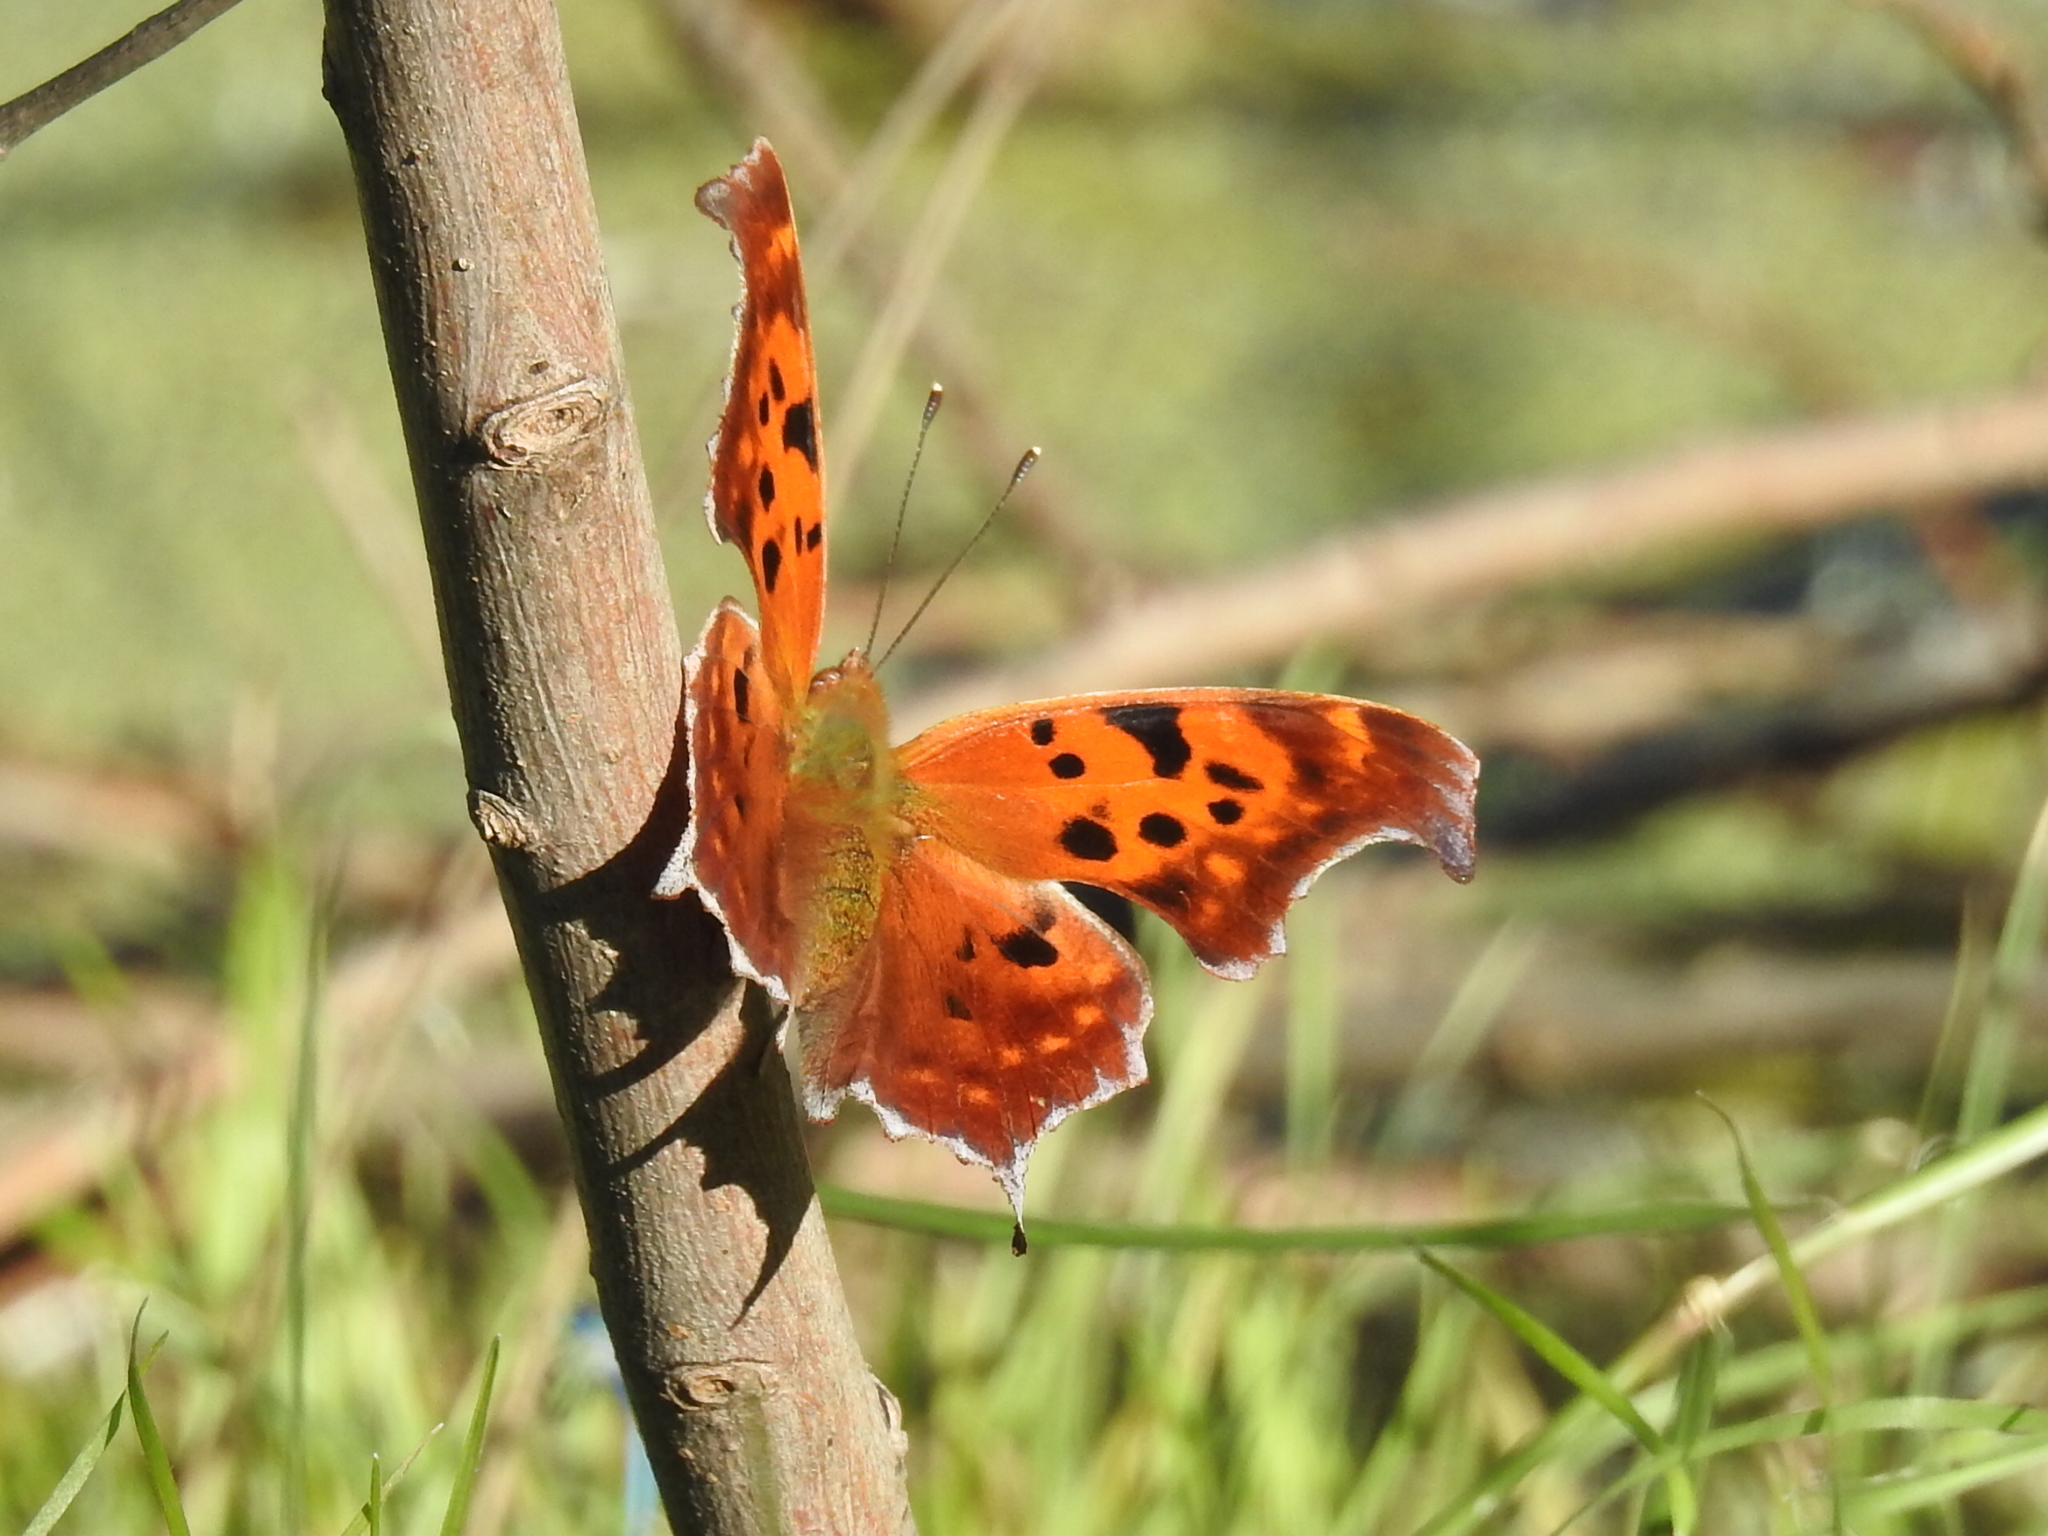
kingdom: Animalia
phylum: Arthropoda
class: Insecta
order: Lepidoptera
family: Nymphalidae
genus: Polygonia
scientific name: Polygonia interrogationis
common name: Question mark
